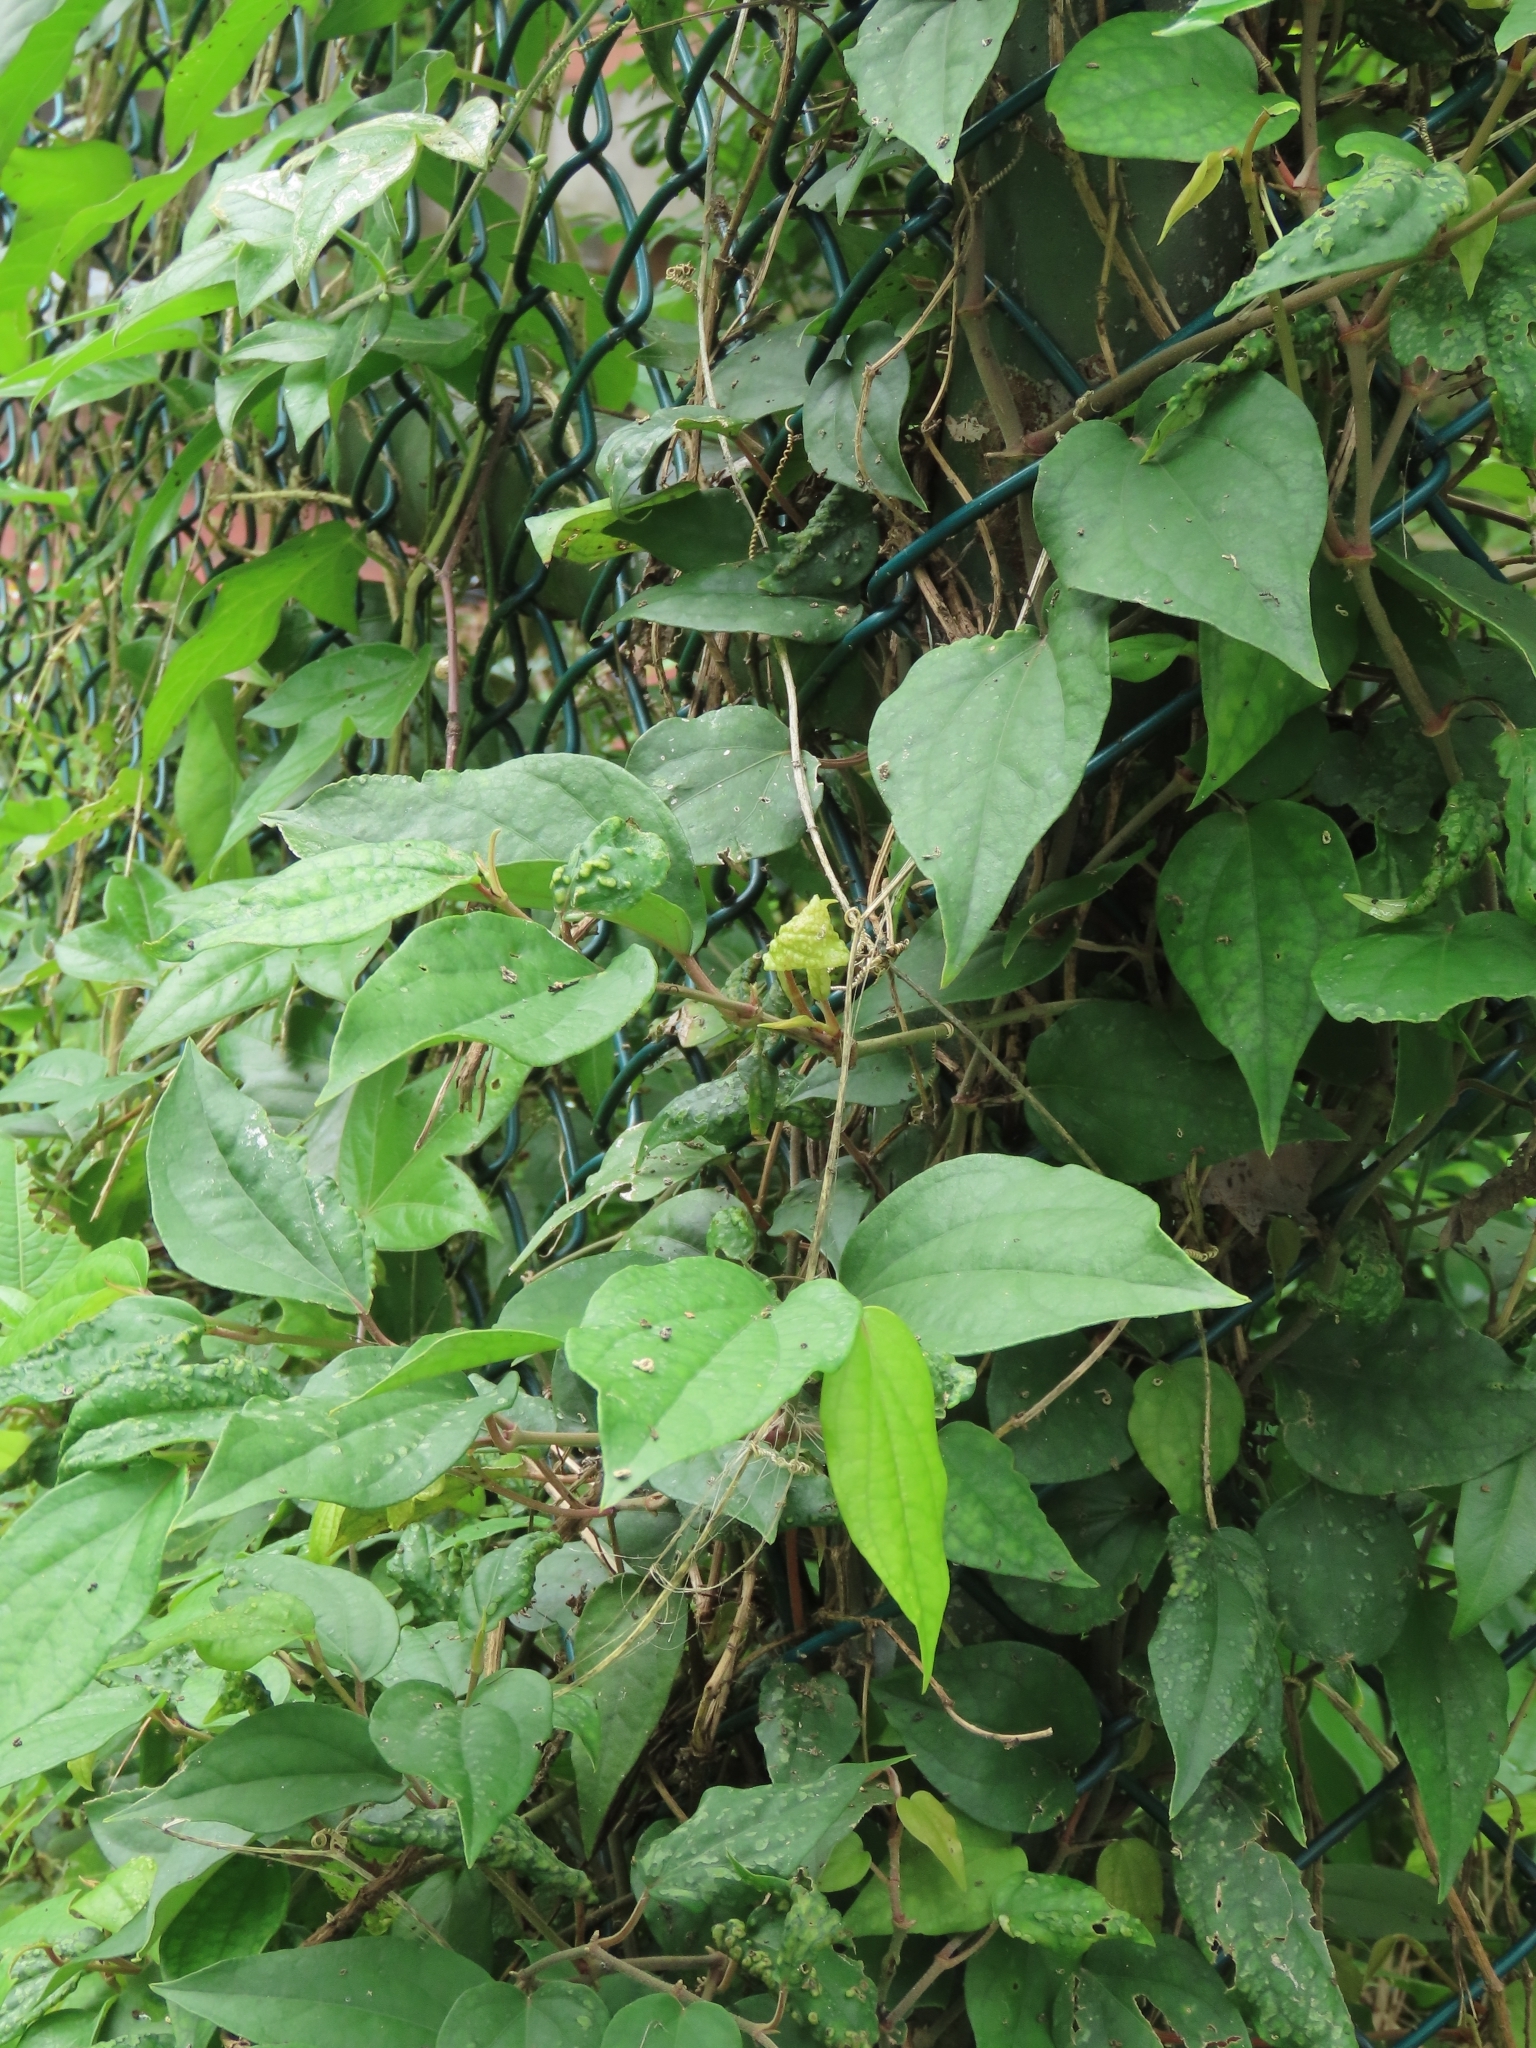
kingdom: Plantae
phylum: Tracheophyta
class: Magnoliopsida
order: Piperales
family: Piperaceae
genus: Piper
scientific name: Piper kadsura
